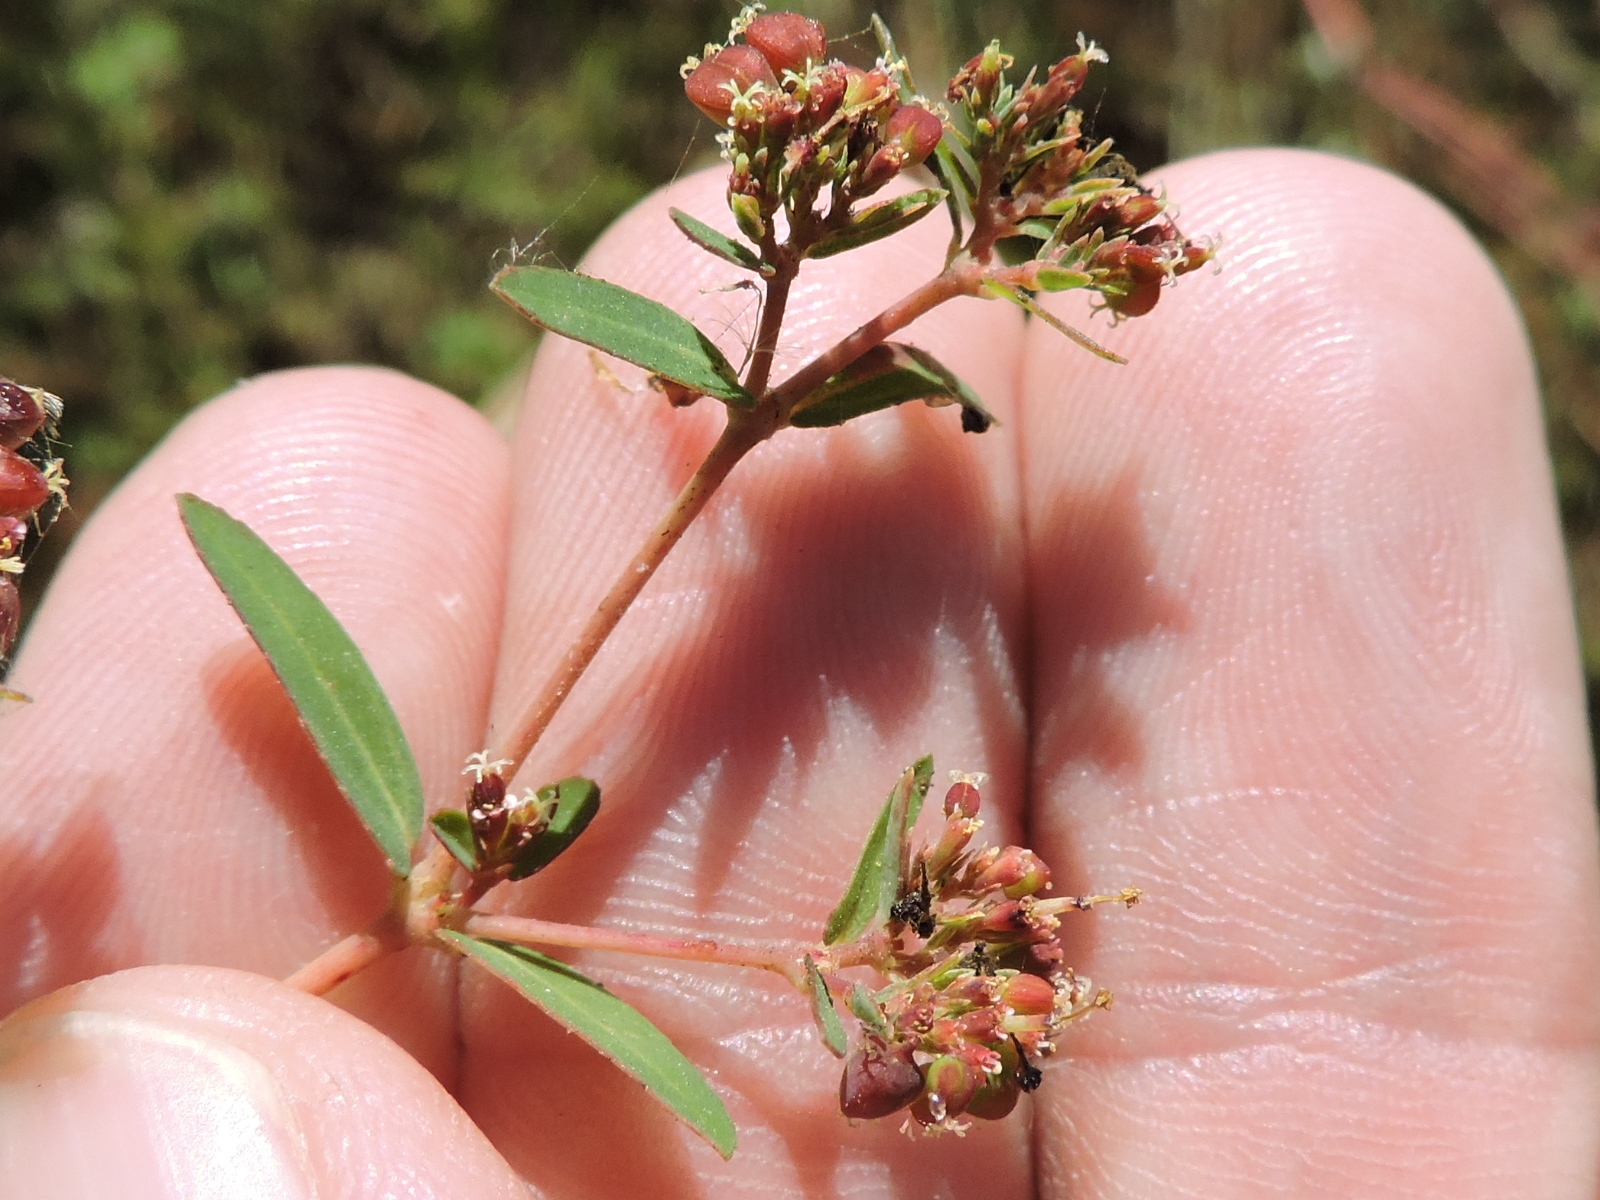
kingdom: Plantae
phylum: Tracheophyta
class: Magnoliopsida
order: Malpighiales
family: Euphorbiaceae
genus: Euphorbia
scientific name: Euphorbia hyssopifolia
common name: Hyssopleaf sandmat
